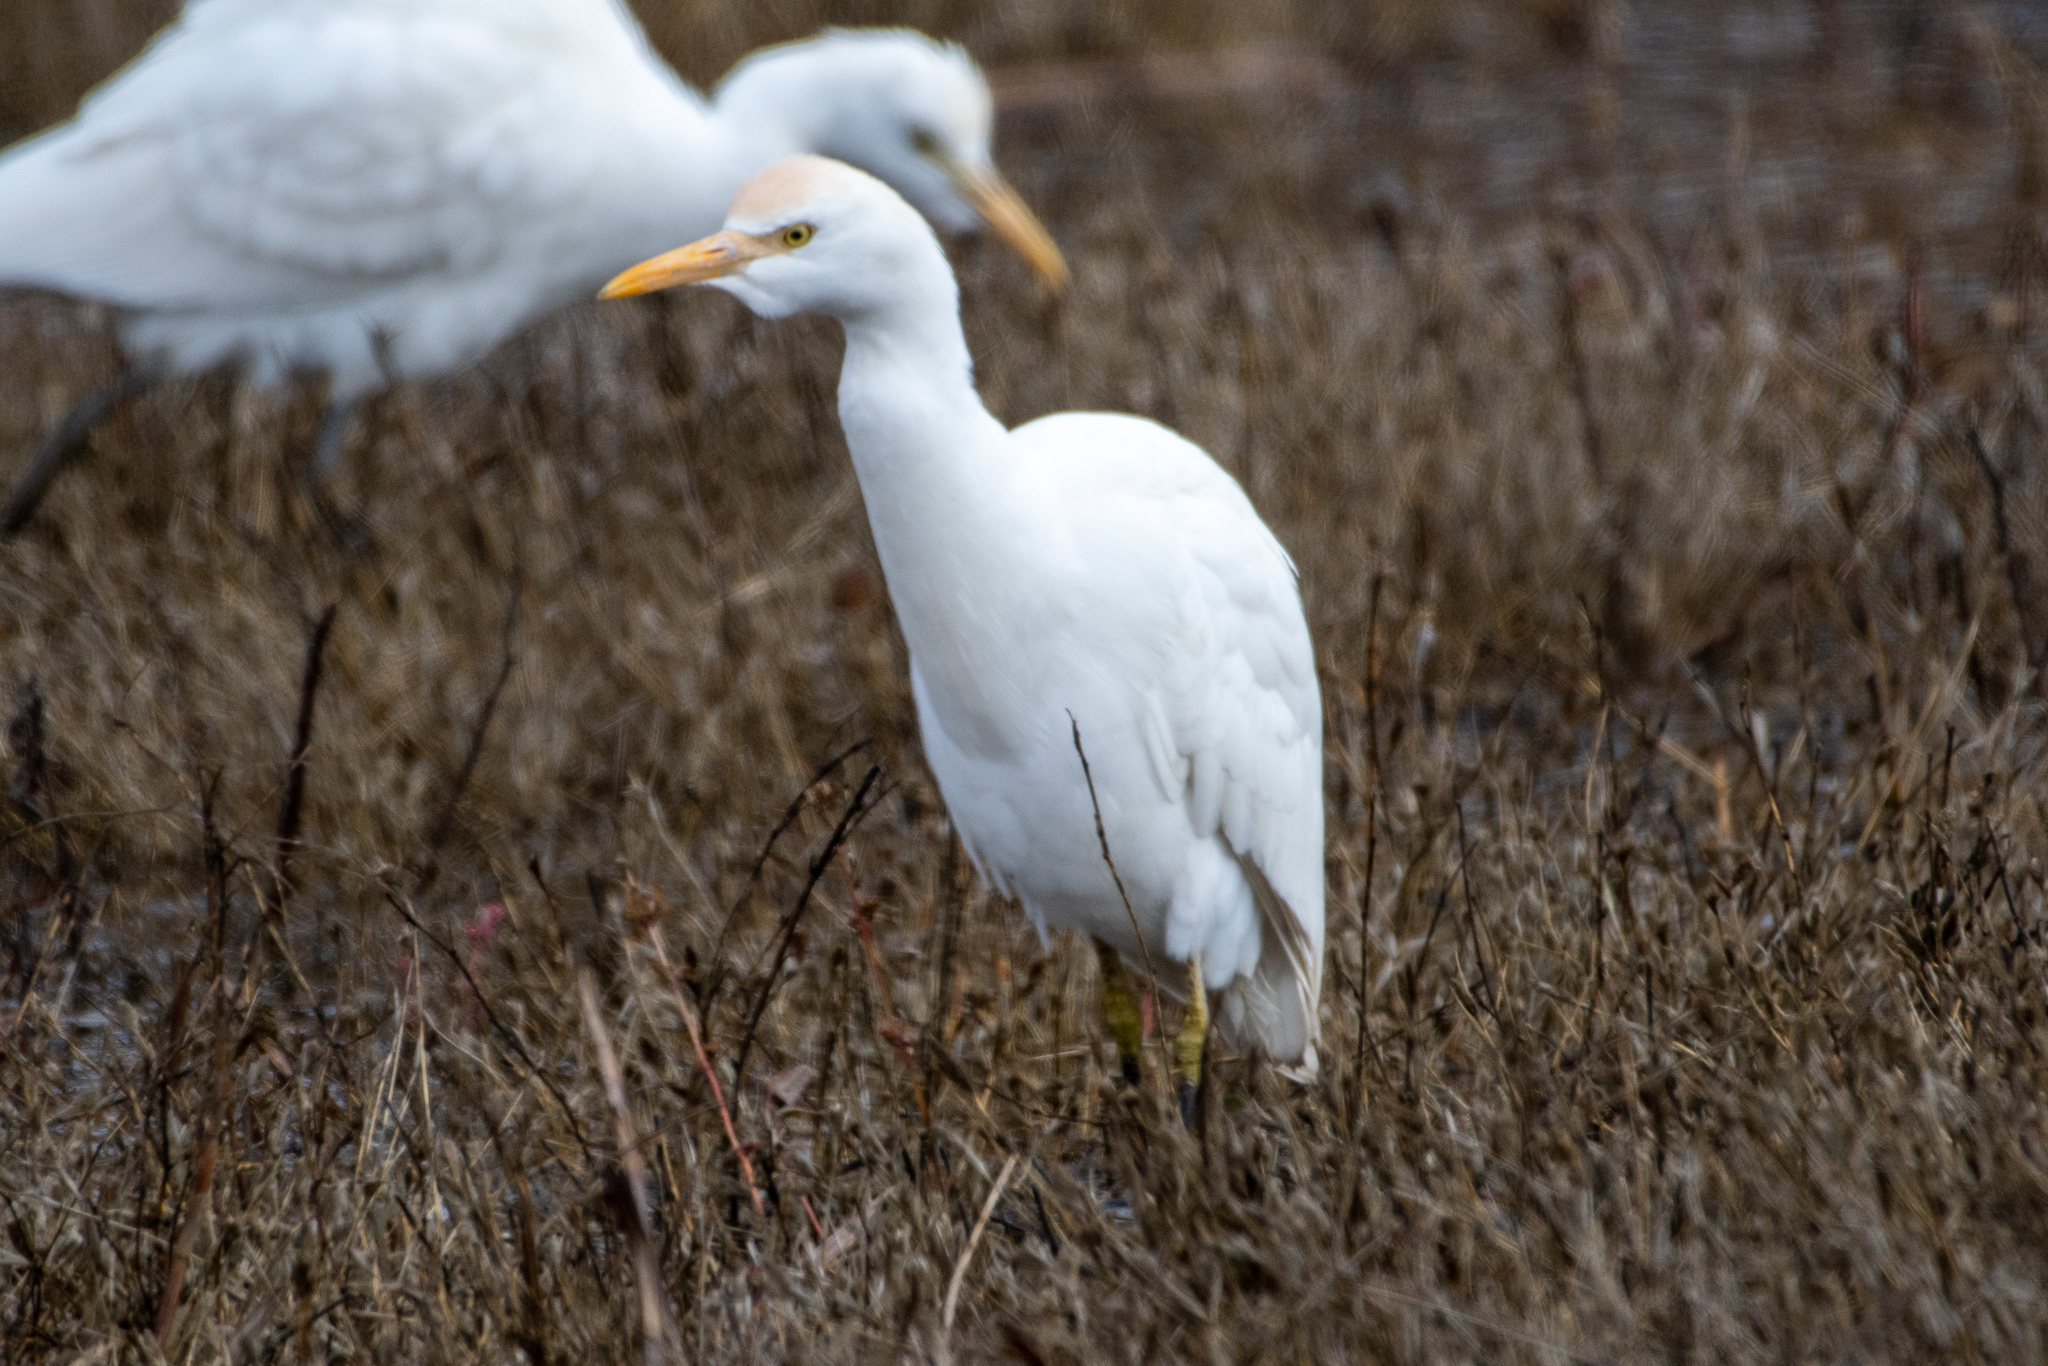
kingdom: Animalia
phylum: Chordata
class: Aves
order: Pelecaniformes
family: Ardeidae
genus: Bubulcus
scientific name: Bubulcus ibis
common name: Cattle egret
